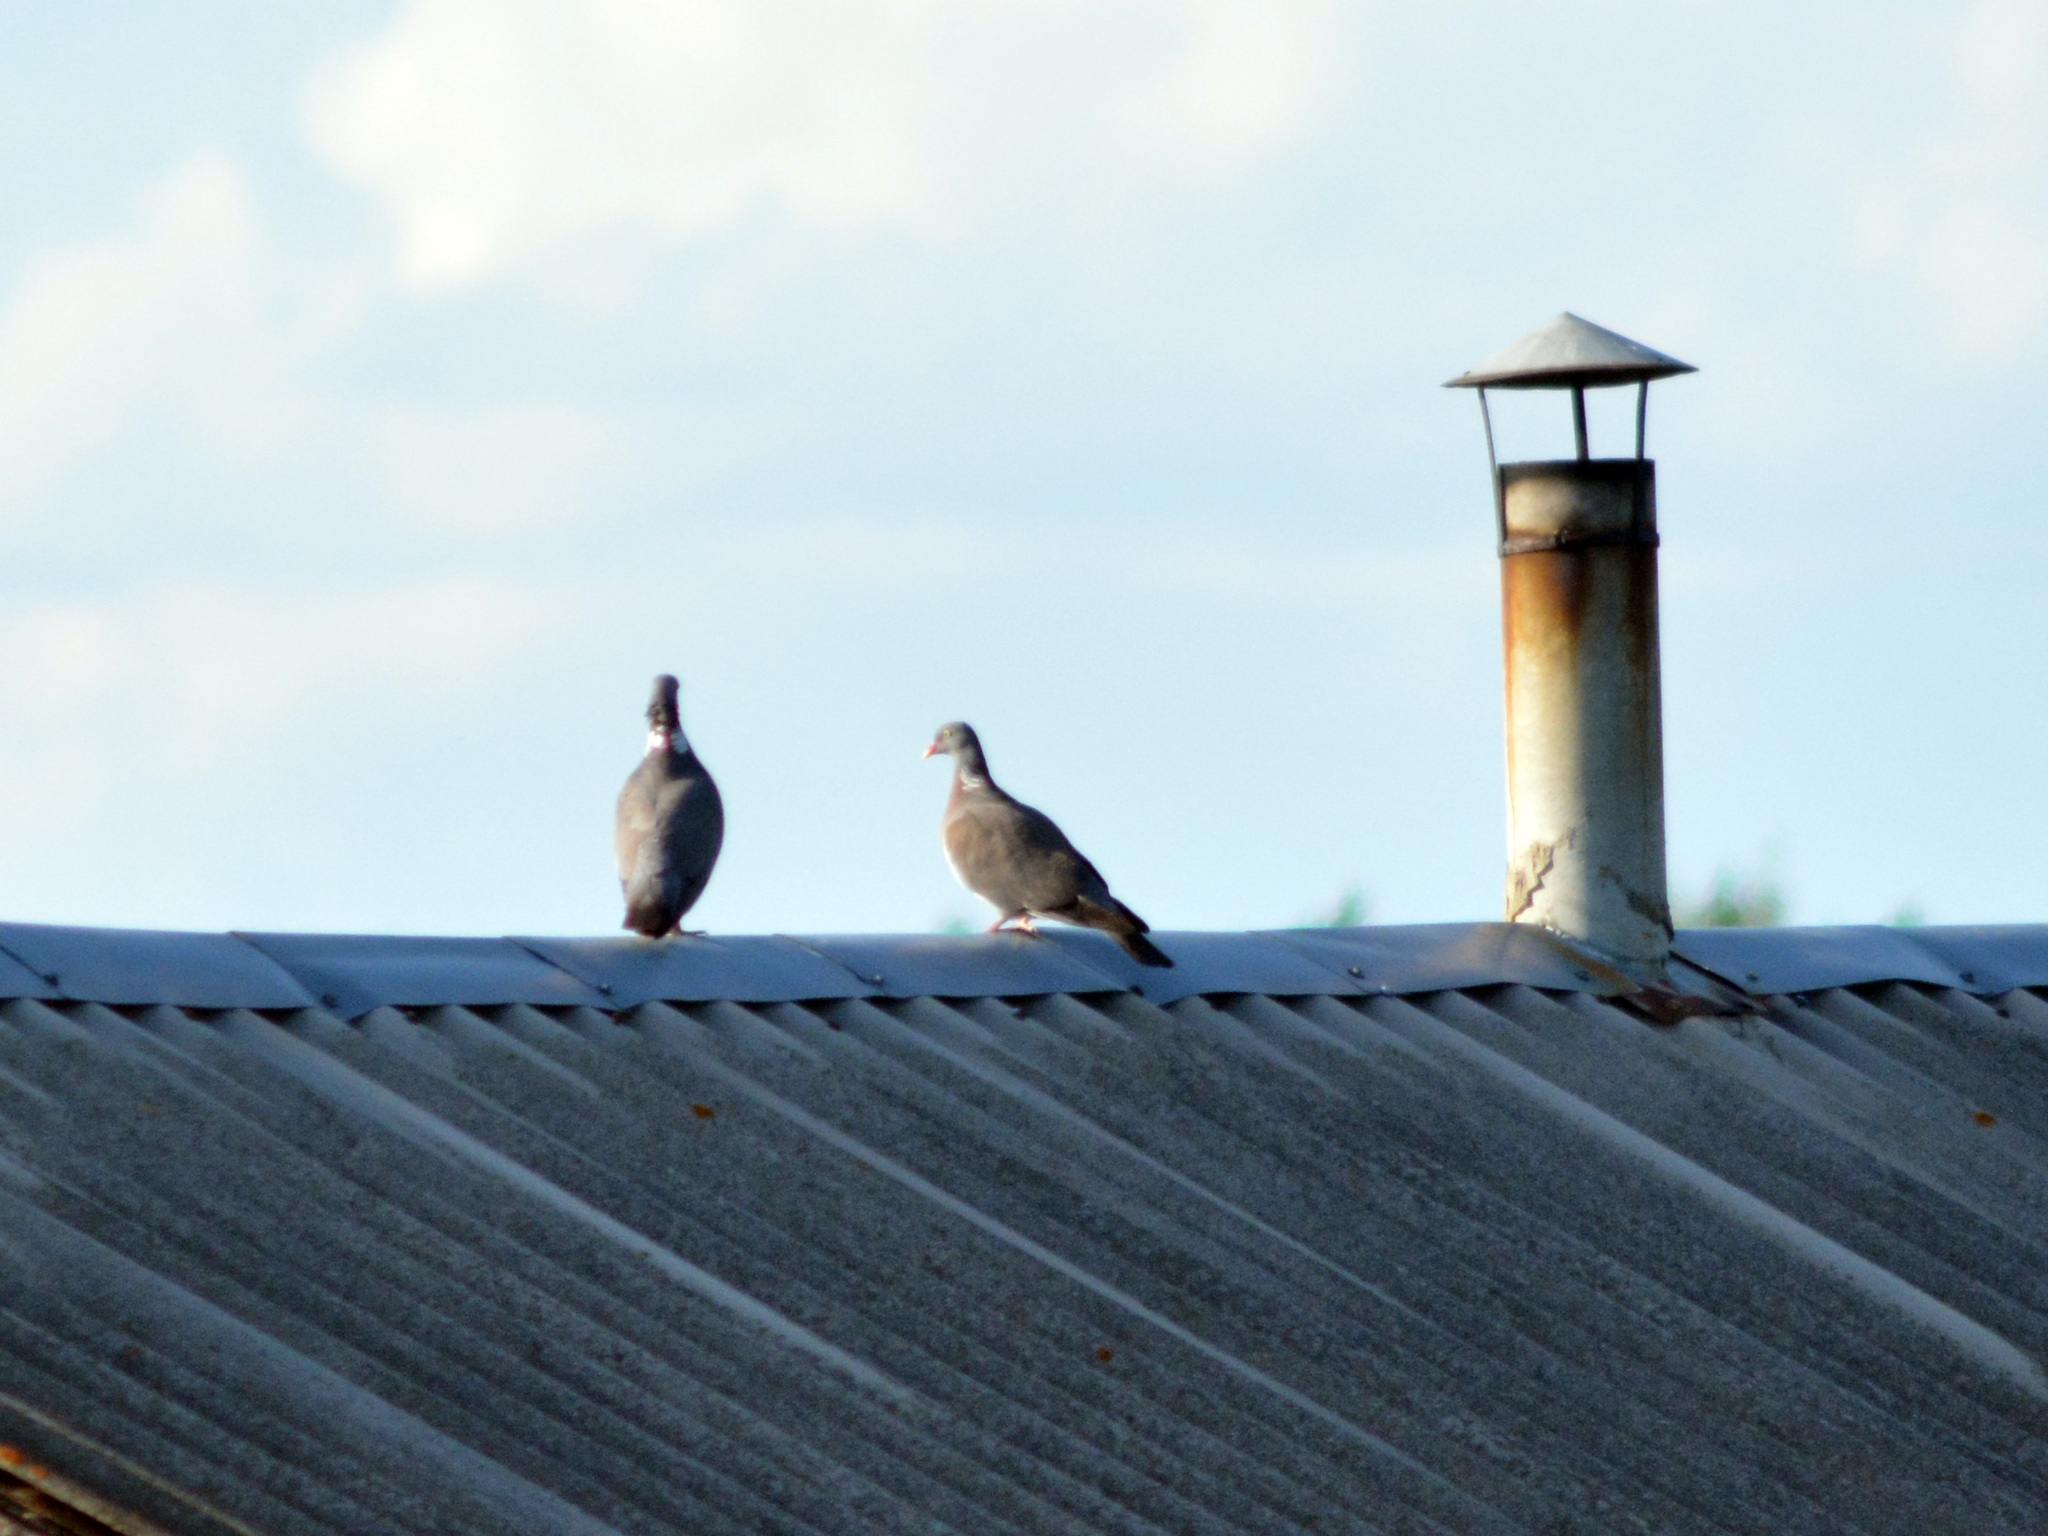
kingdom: Animalia
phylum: Chordata
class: Aves
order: Columbiformes
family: Columbidae
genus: Columba
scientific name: Columba palumbus
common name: Common wood pigeon
